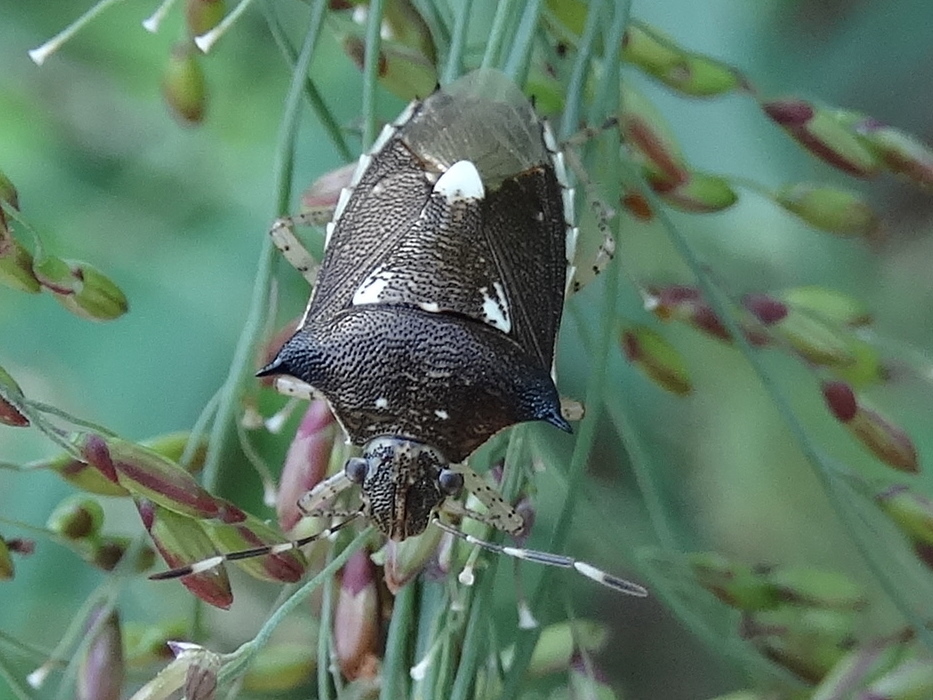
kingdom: Animalia
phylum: Arthropoda
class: Insecta
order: Hemiptera
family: Pentatomidae
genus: Mormidea
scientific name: Mormidea lunara
